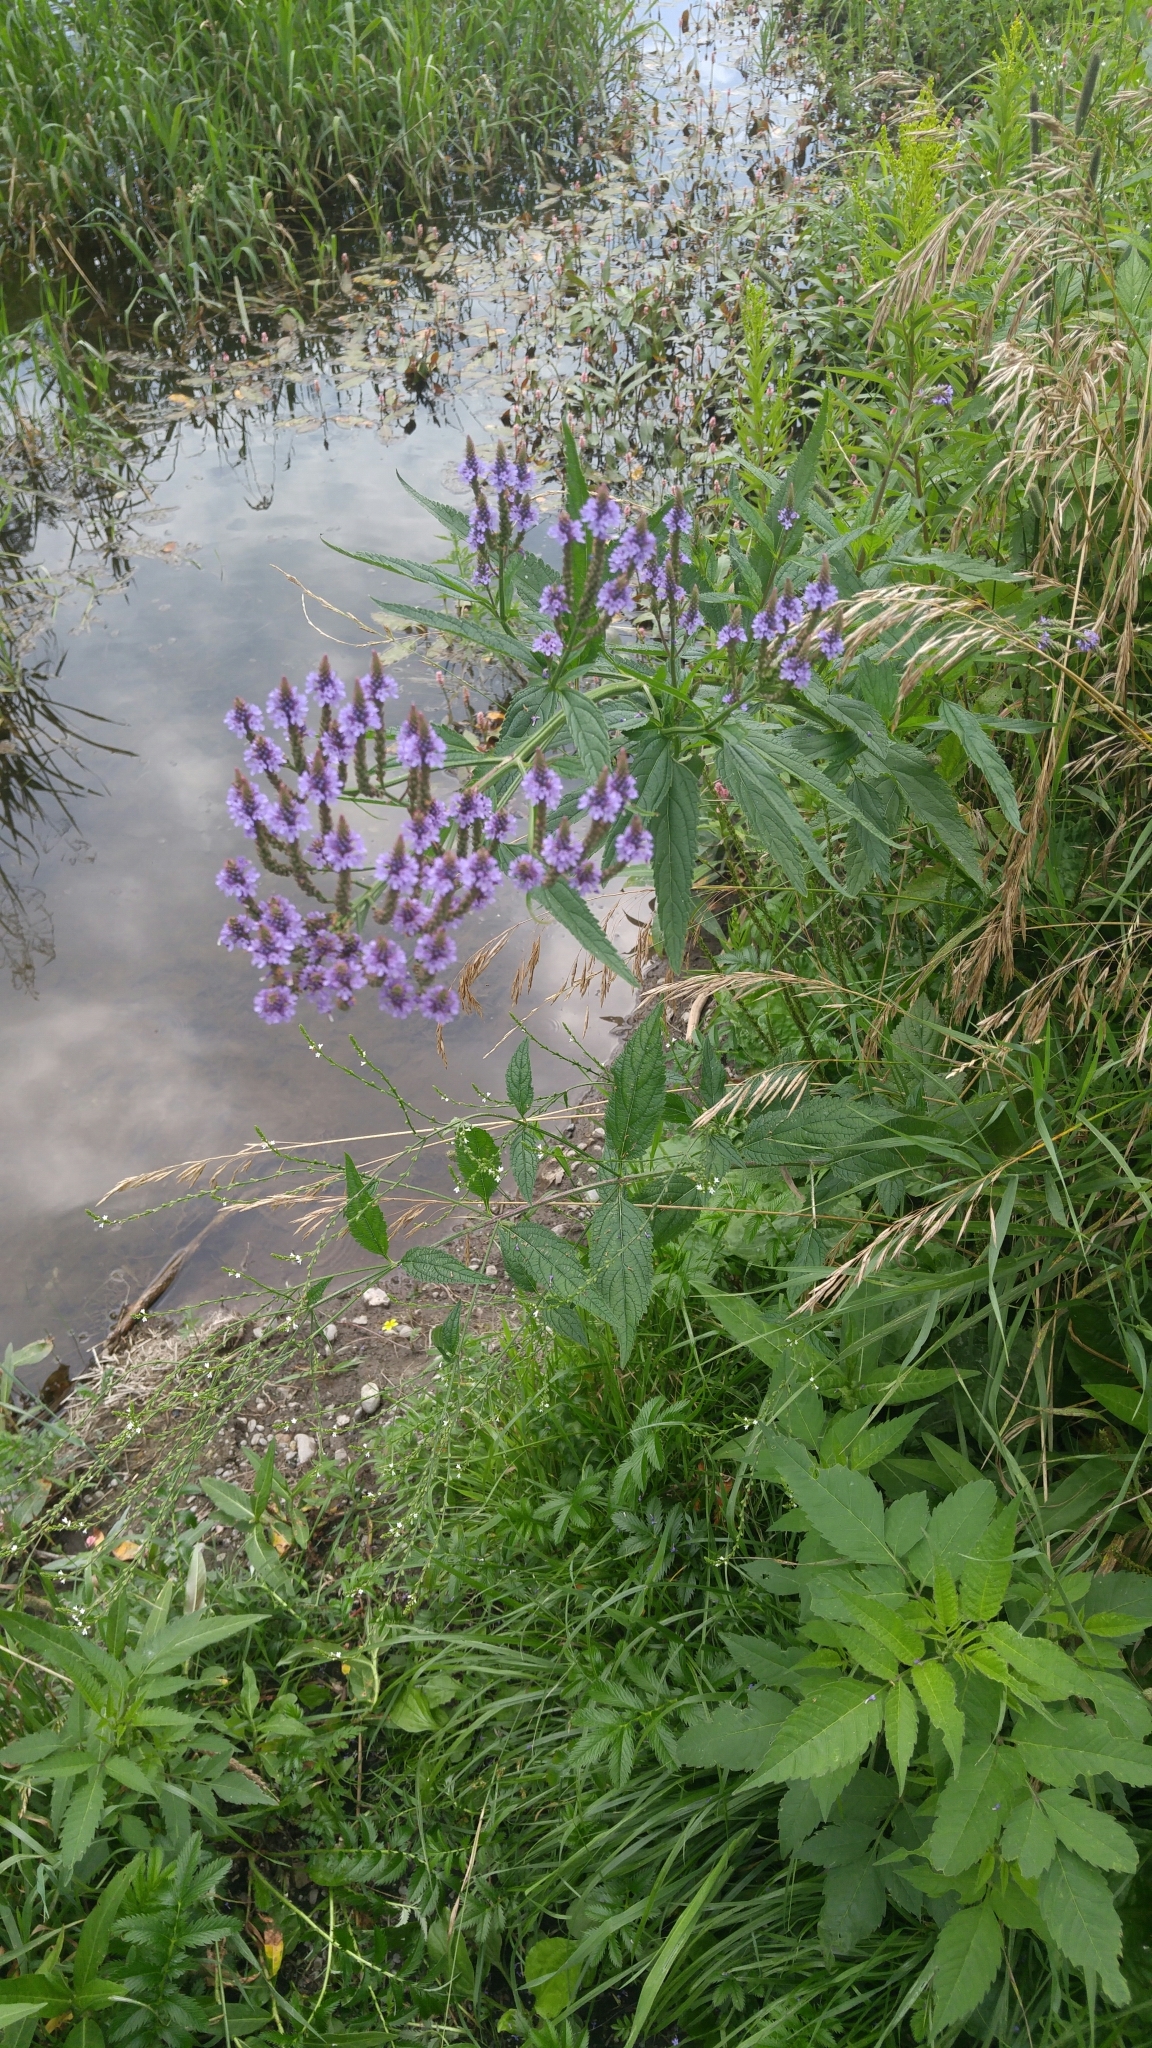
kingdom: Plantae
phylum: Tracheophyta
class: Magnoliopsida
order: Lamiales
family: Verbenaceae
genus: Verbena
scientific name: Verbena hastata
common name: American blue vervain
